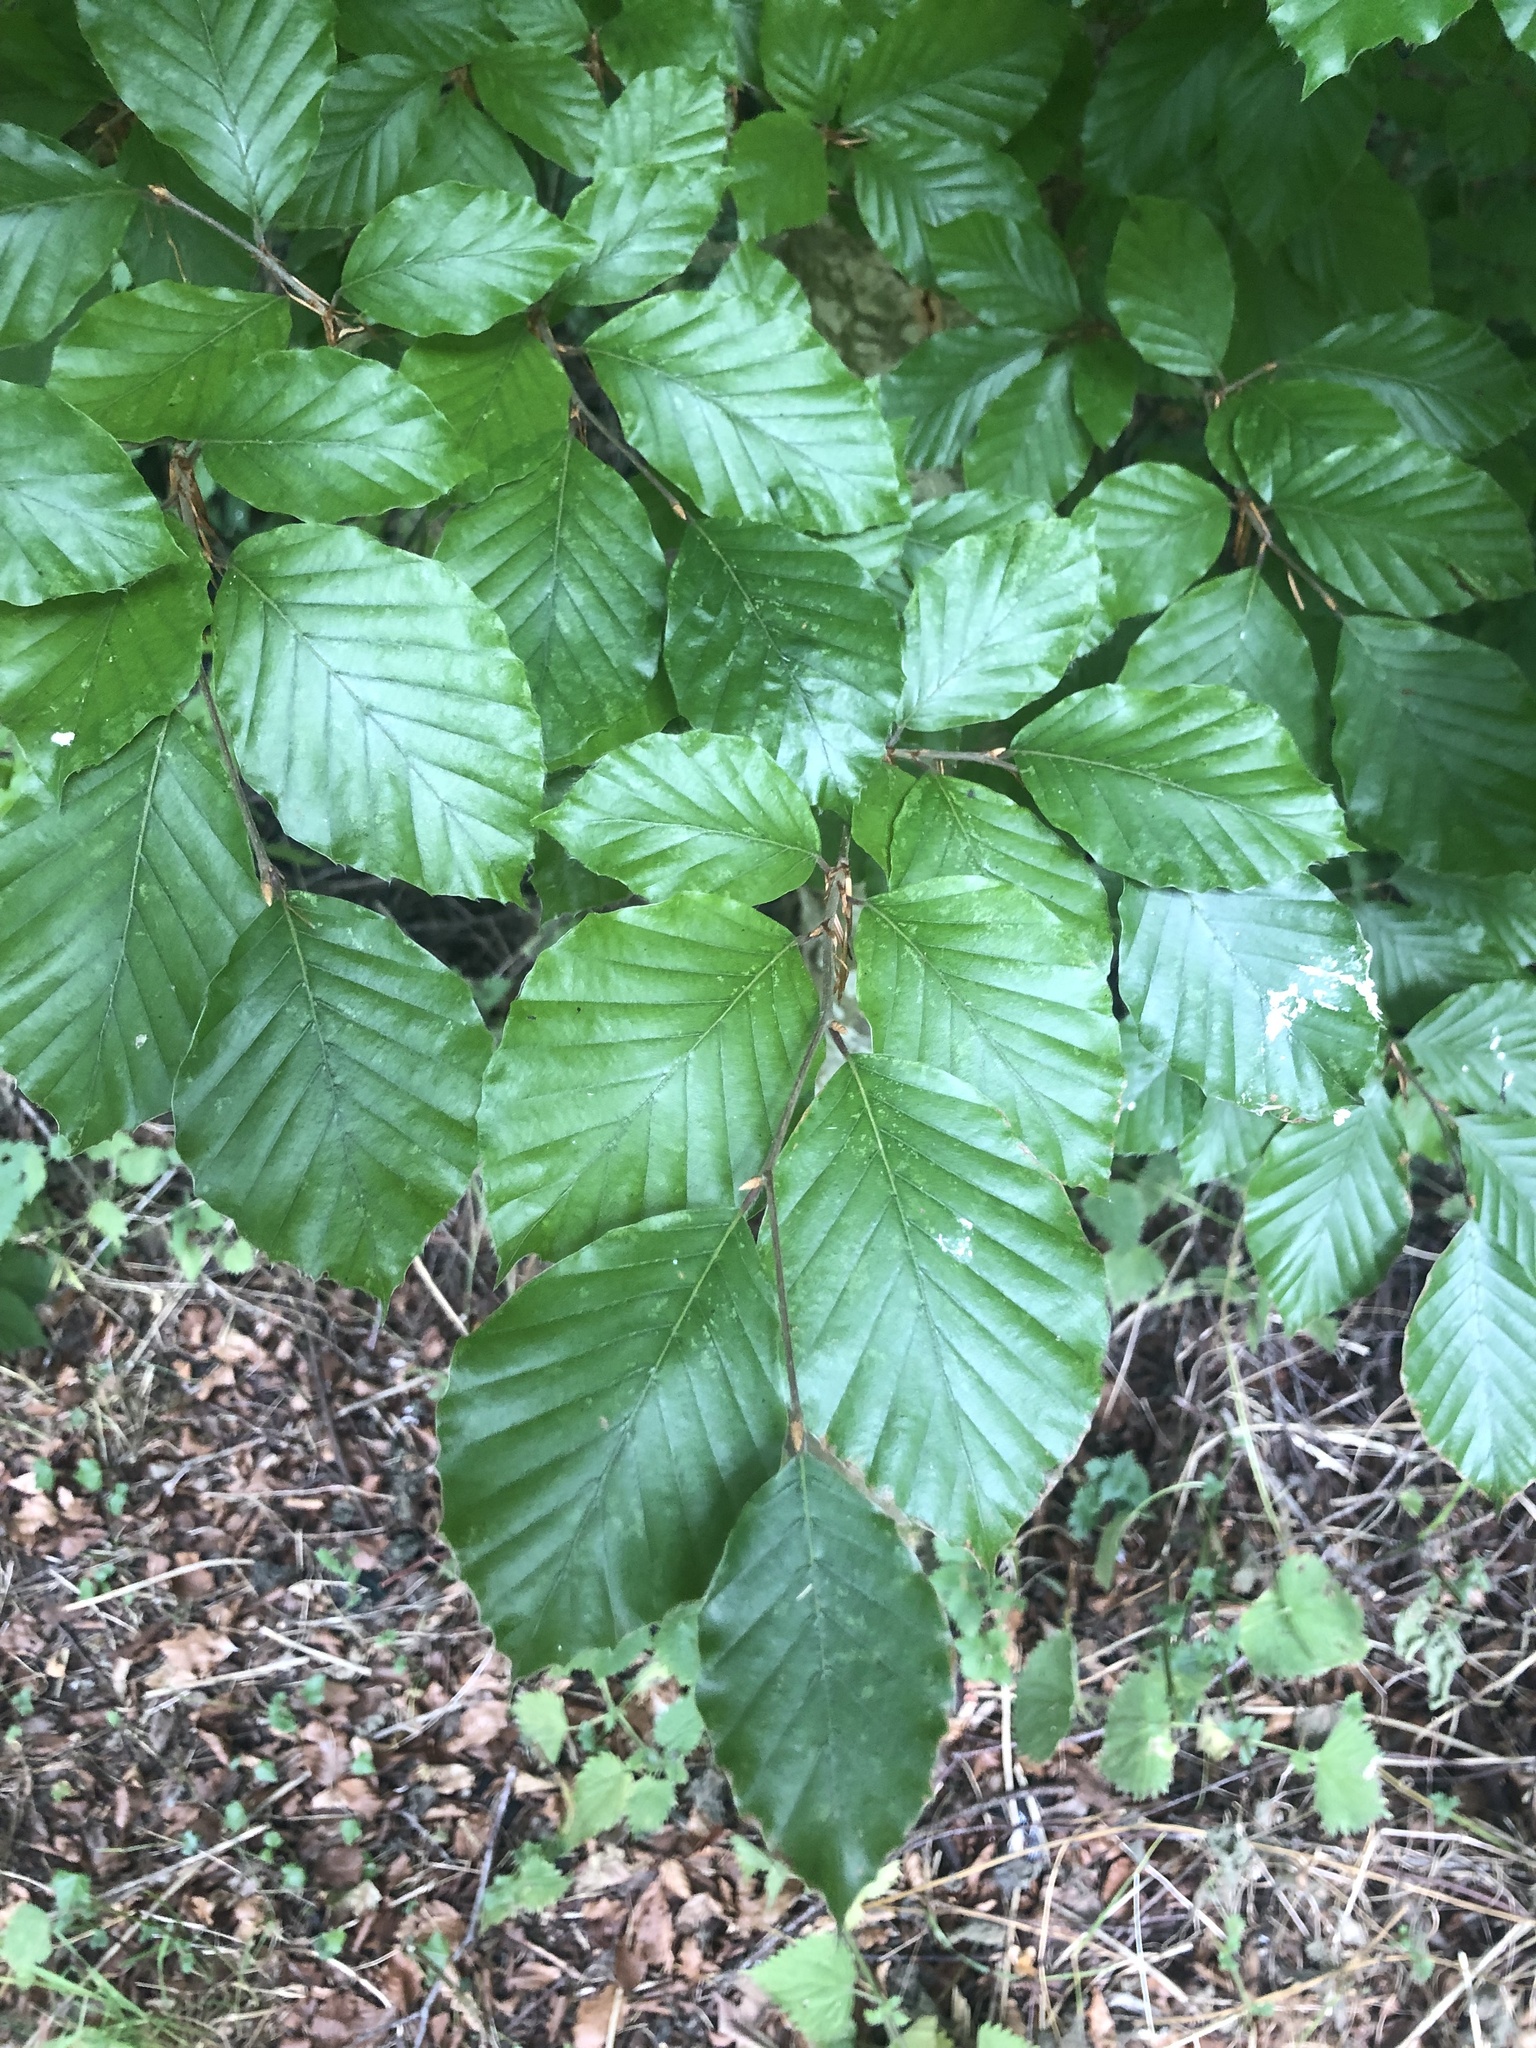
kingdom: Plantae
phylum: Tracheophyta
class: Magnoliopsida
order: Fagales
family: Fagaceae
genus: Fagus
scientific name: Fagus sylvatica
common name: Beech
